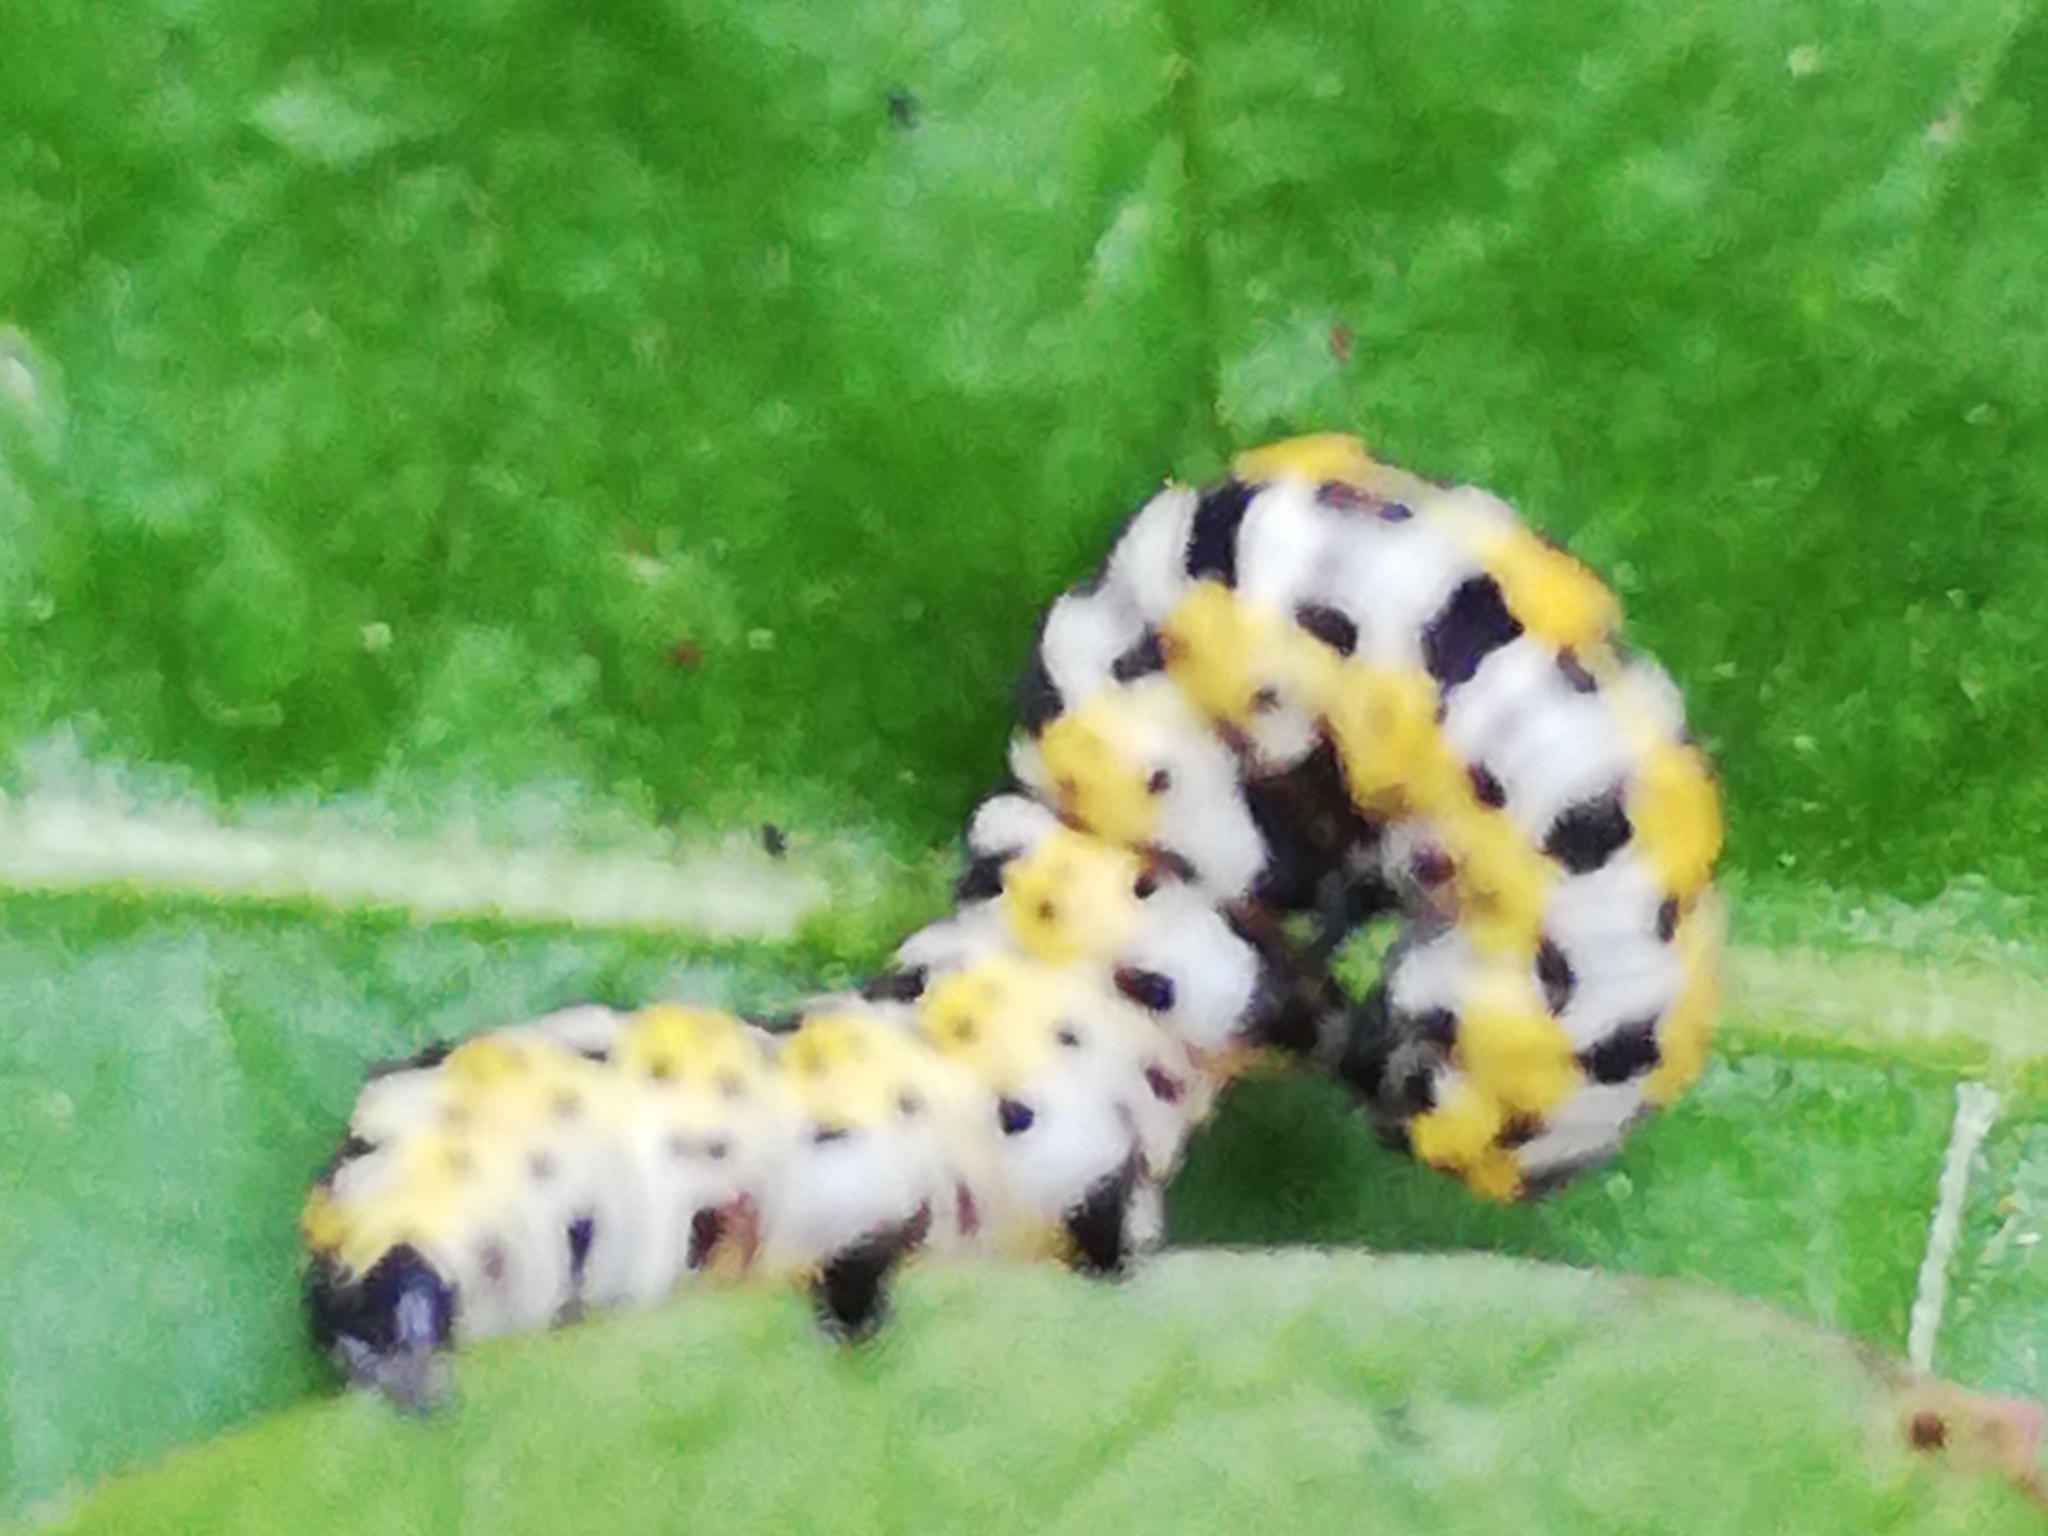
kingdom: Animalia
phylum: Arthropoda
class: Insecta
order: Lepidoptera
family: Noctuidae
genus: Cucullia
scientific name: Cucullia pustulata
